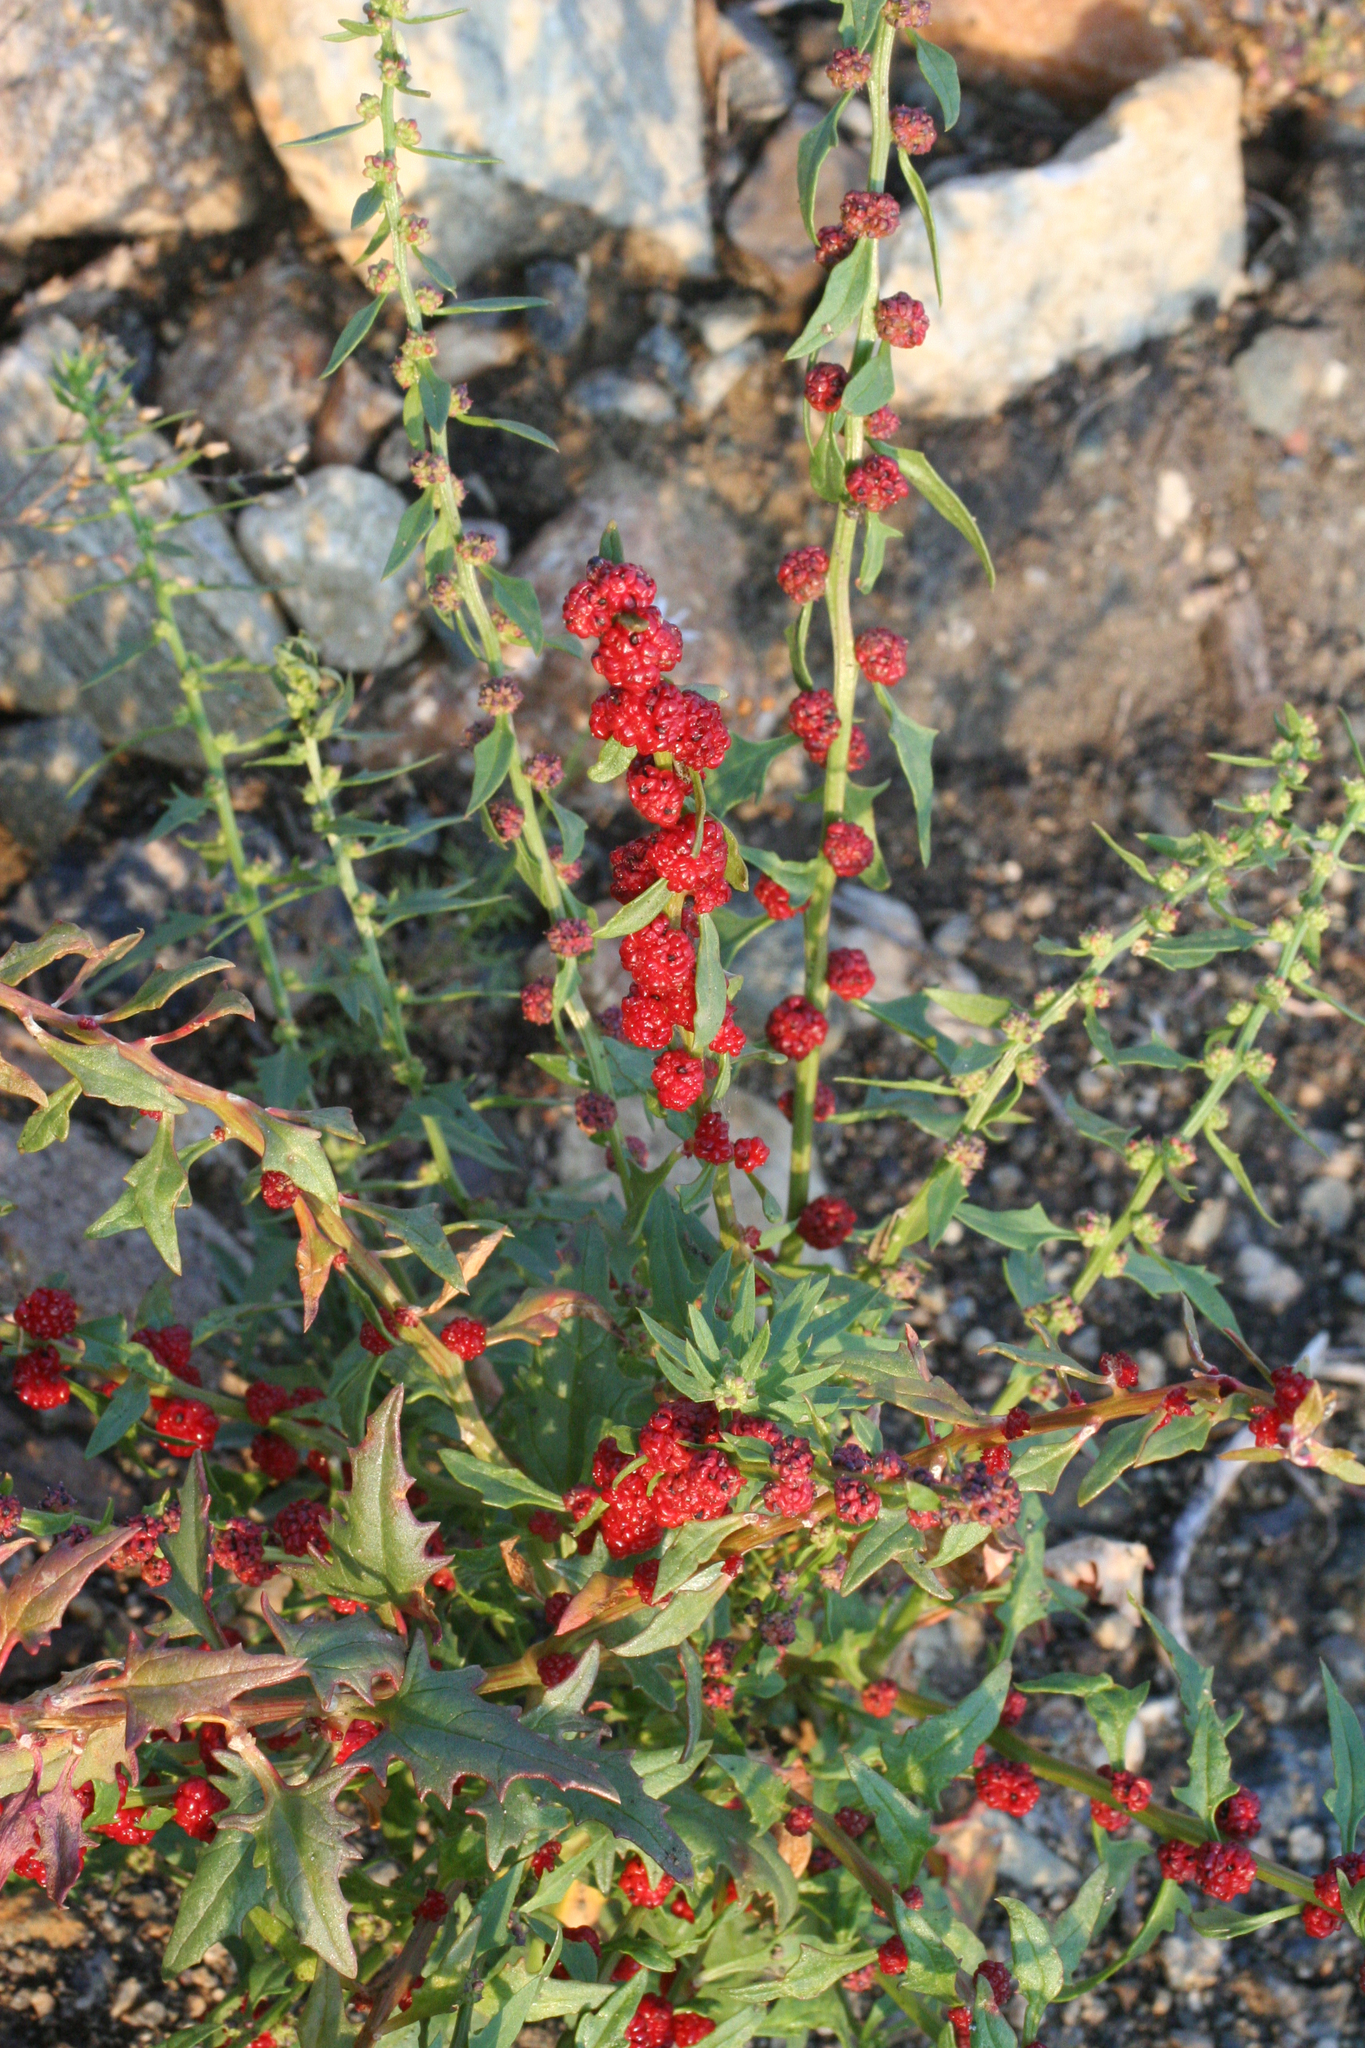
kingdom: Plantae
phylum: Tracheophyta
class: Magnoliopsida
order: Caryophyllales
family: Amaranthaceae
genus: Blitum
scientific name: Blitum virgatum
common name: Strawberry goosefoot
